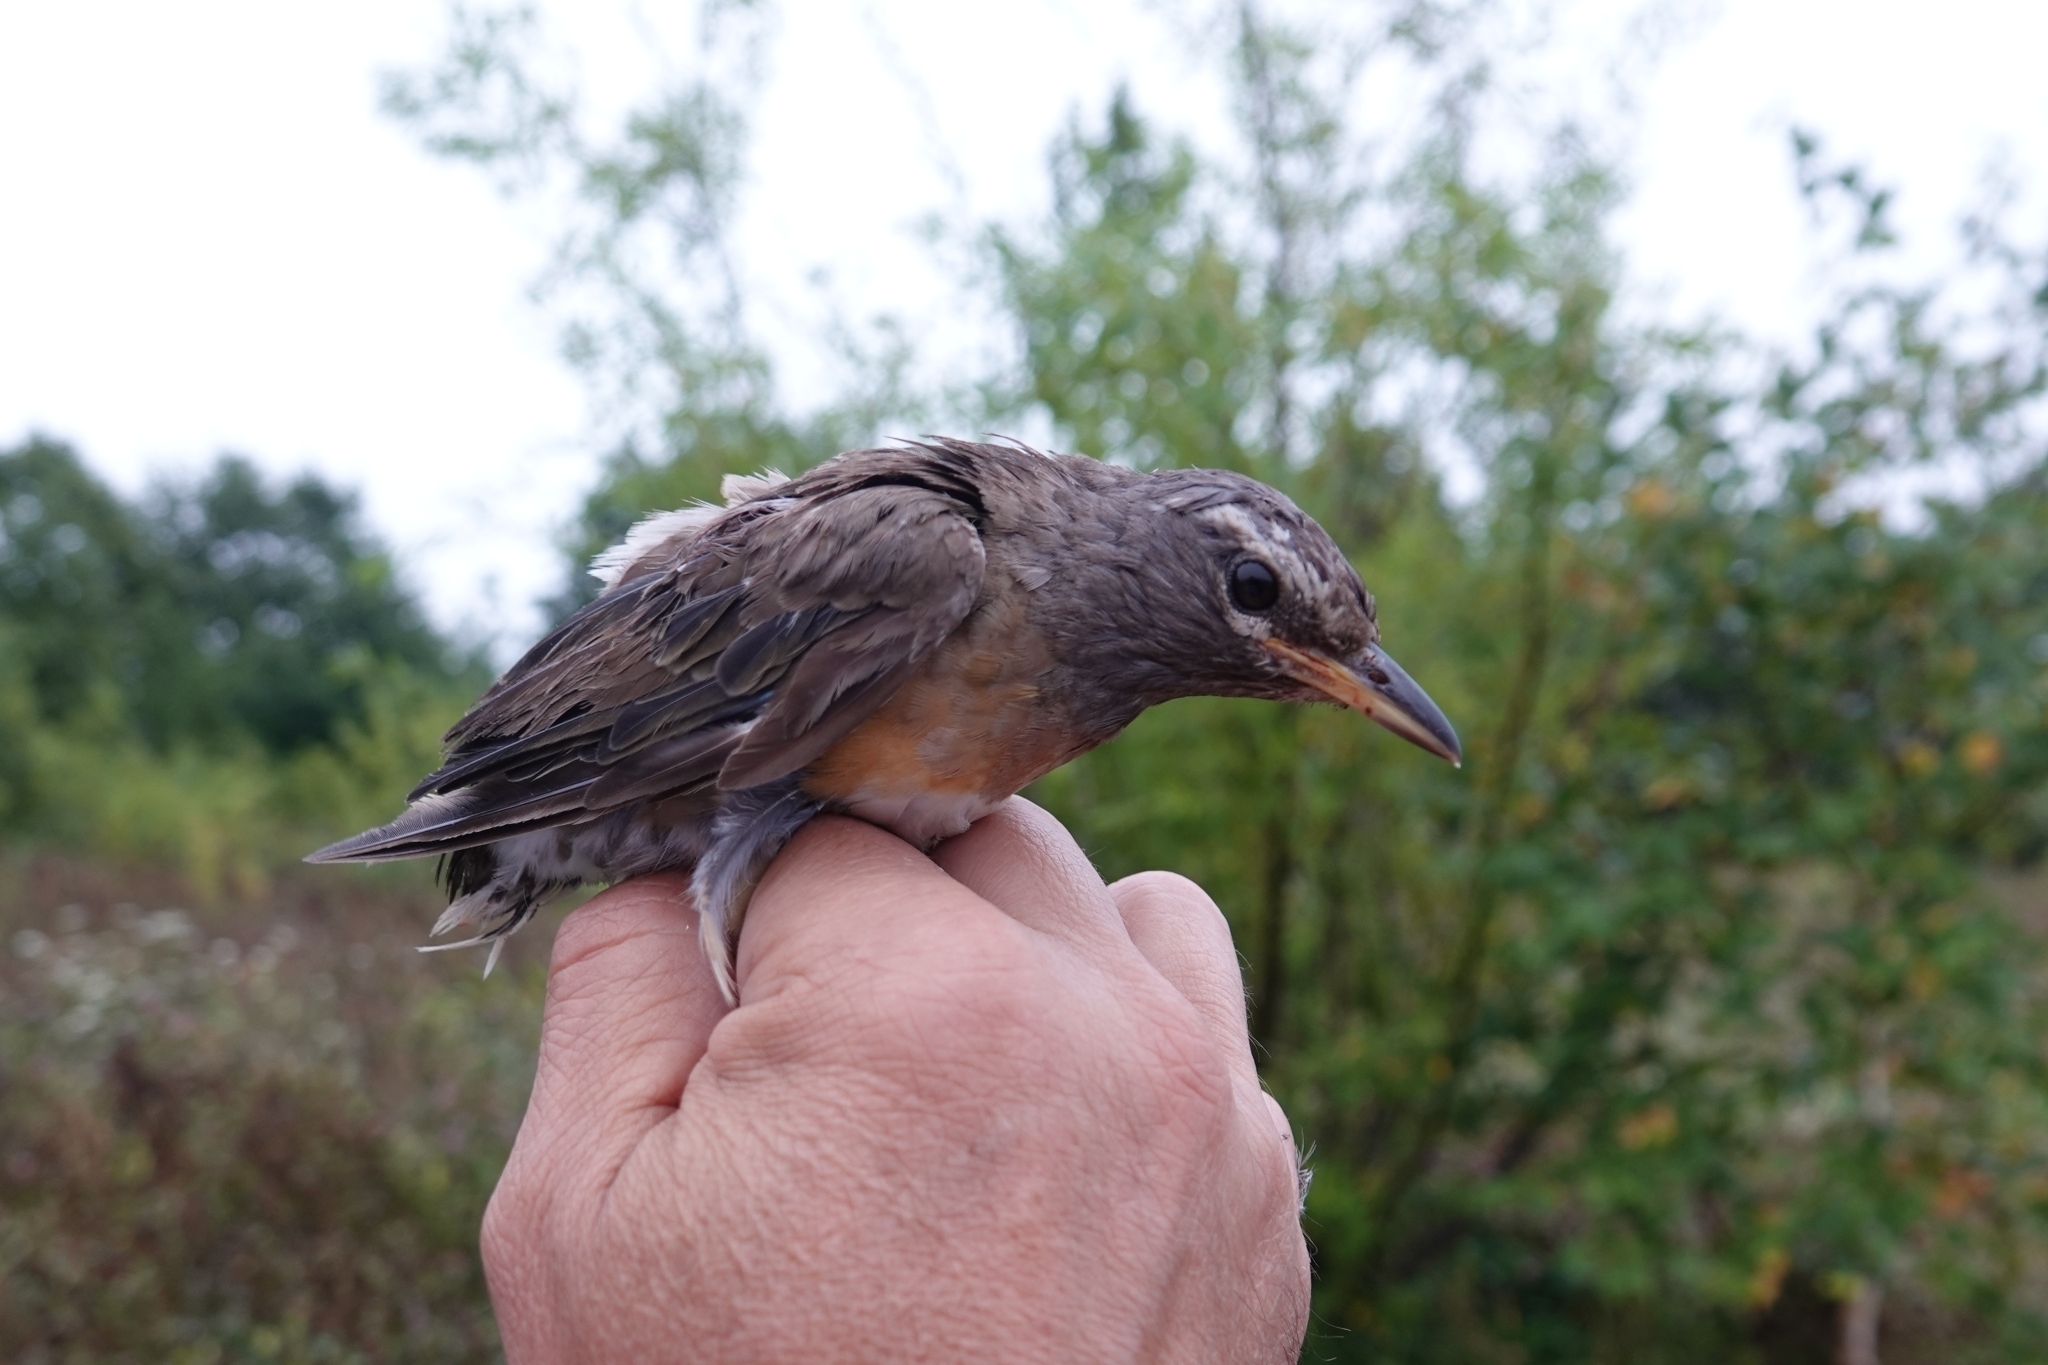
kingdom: Animalia
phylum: Chordata
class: Aves
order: Passeriformes
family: Turdidae
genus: Turdus
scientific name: Turdus obscurus
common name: Eyebrowed thrush
